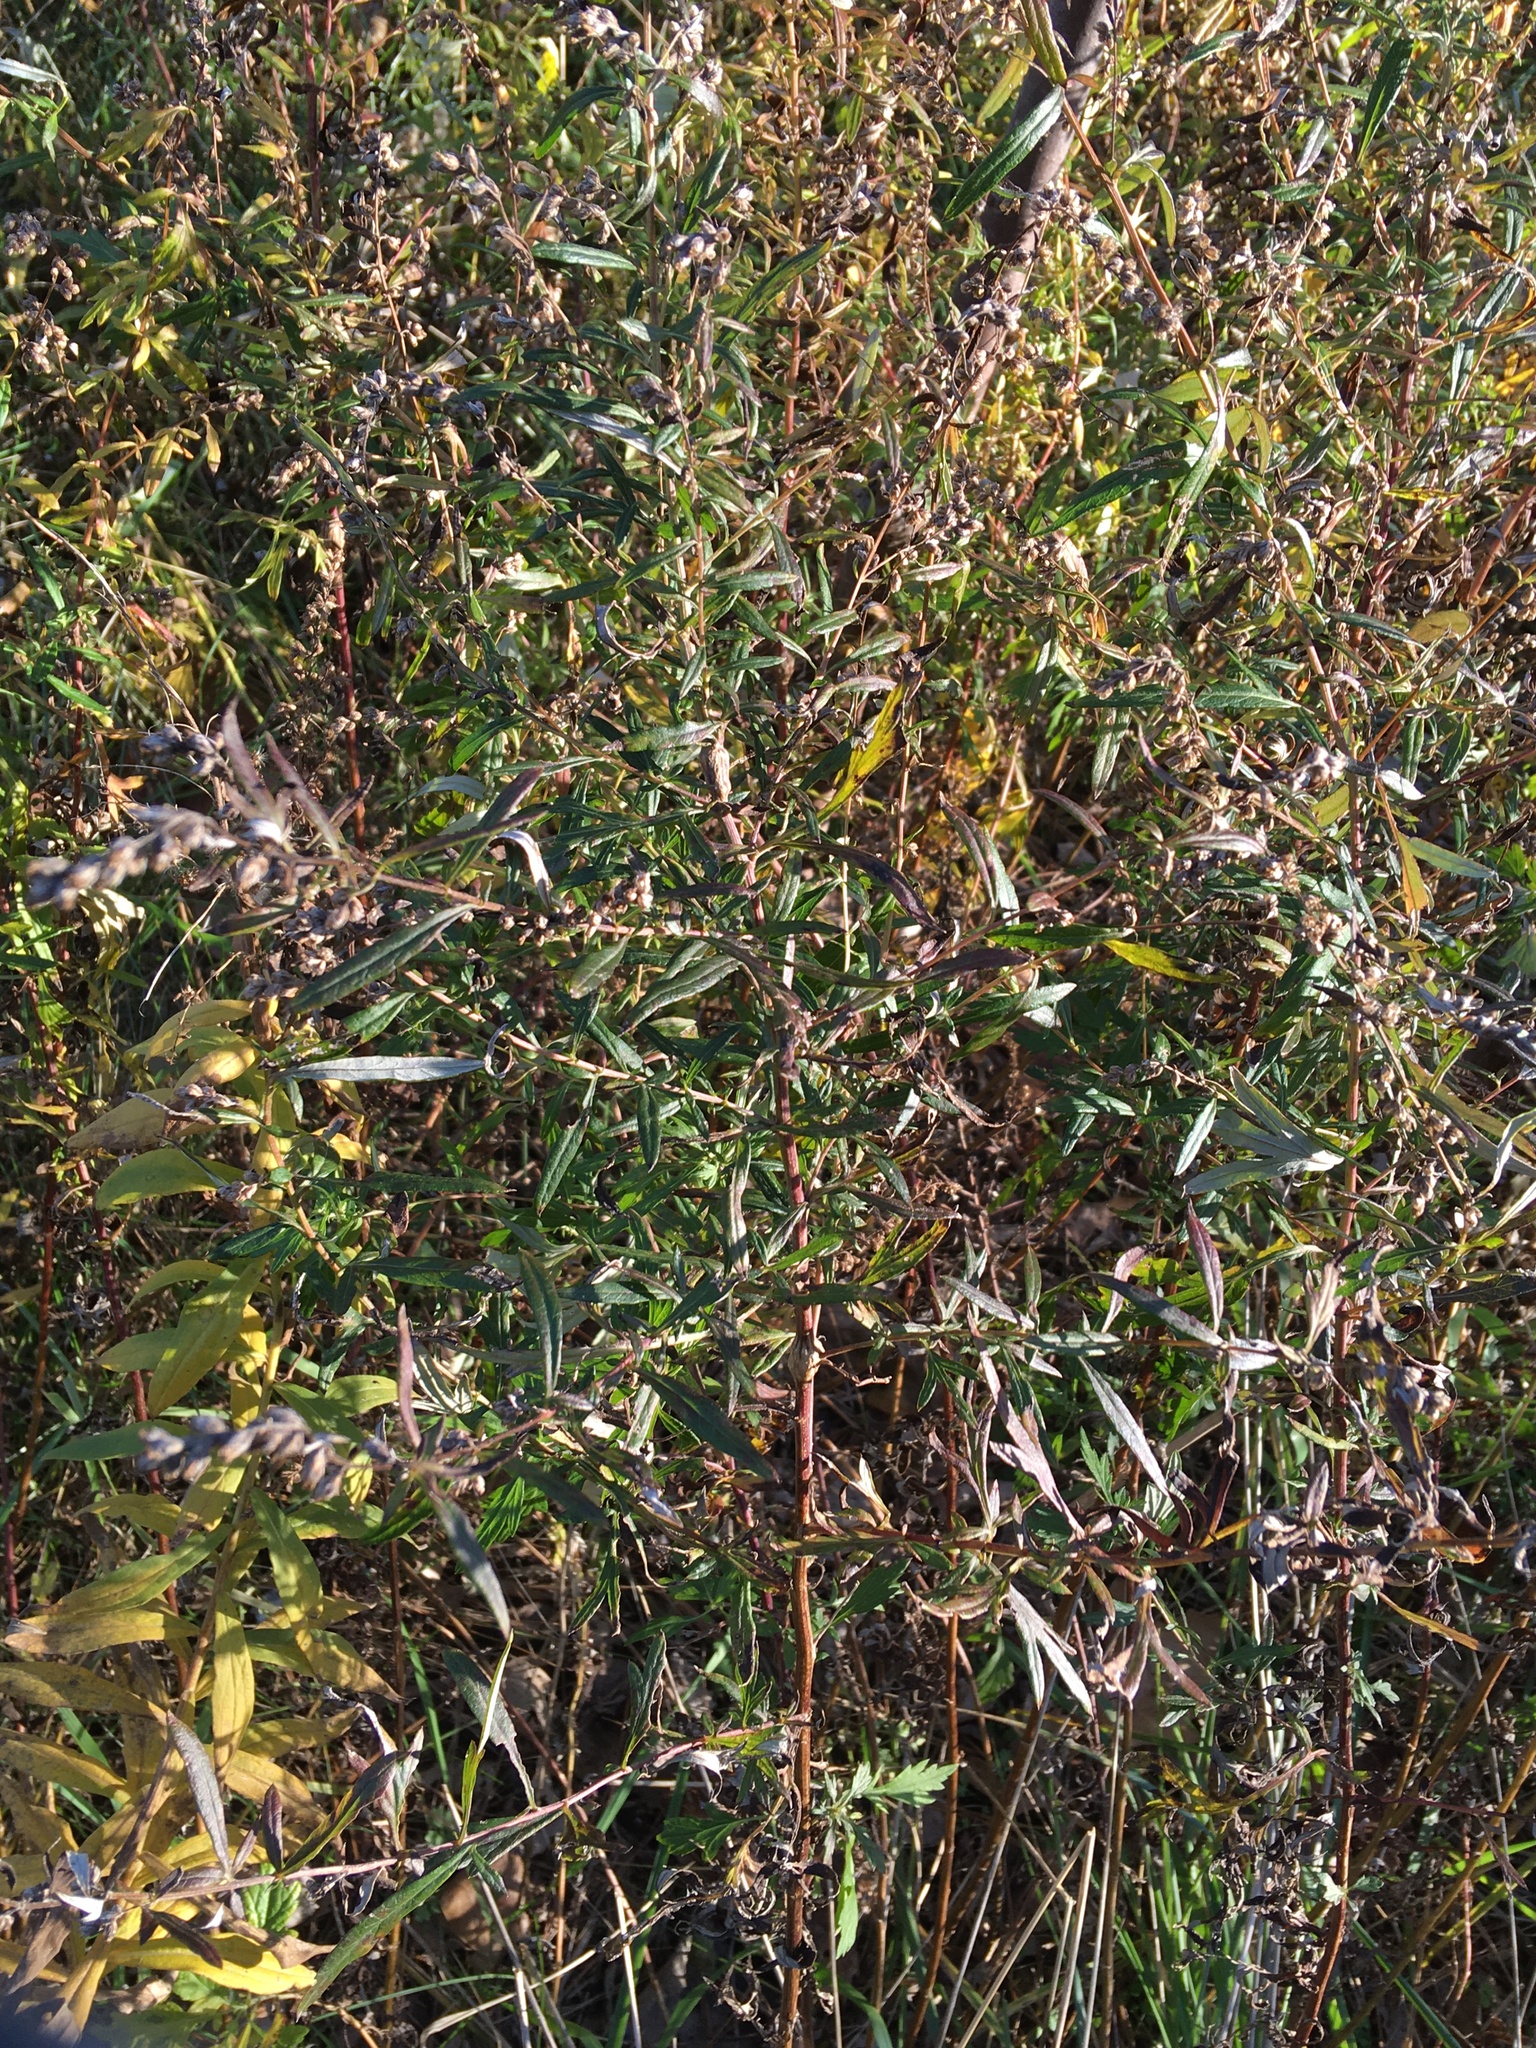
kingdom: Plantae
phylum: Tracheophyta
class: Magnoliopsida
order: Asterales
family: Asteraceae
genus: Artemisia
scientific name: Artemisia vulgaris
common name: Mugwort
